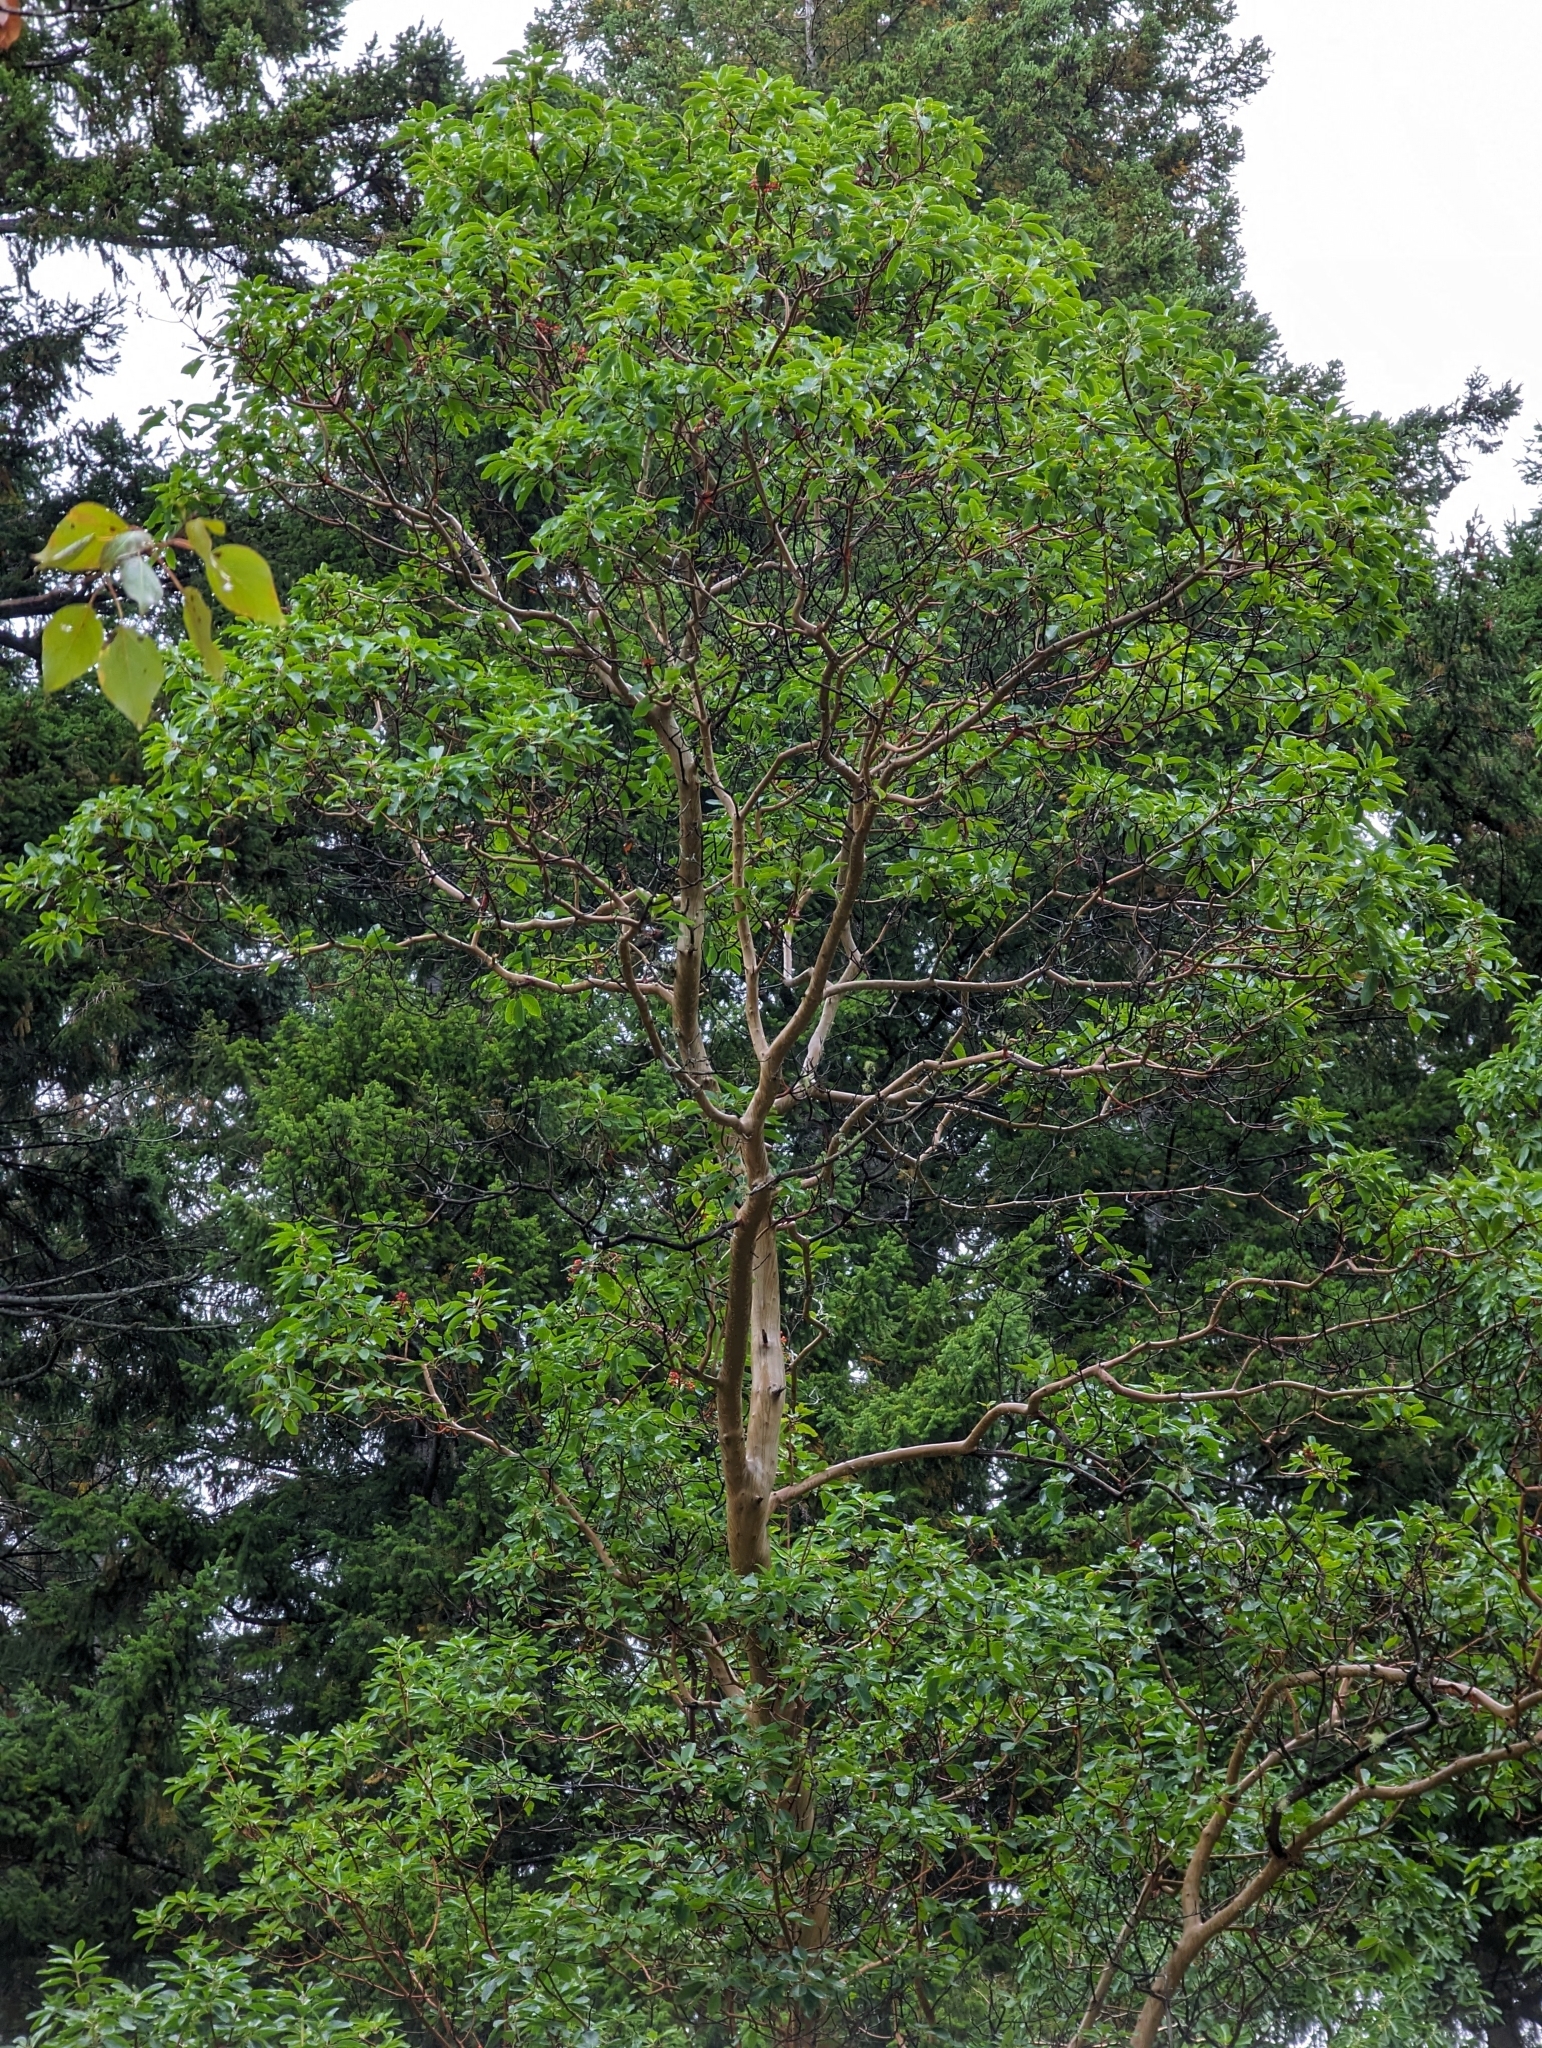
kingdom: Plantae
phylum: Tracheophyta
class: Magnoliopsida
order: Ericales
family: Ericaceae
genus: Arbutus
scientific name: Arbutus menziesii
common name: Pacific madrone
